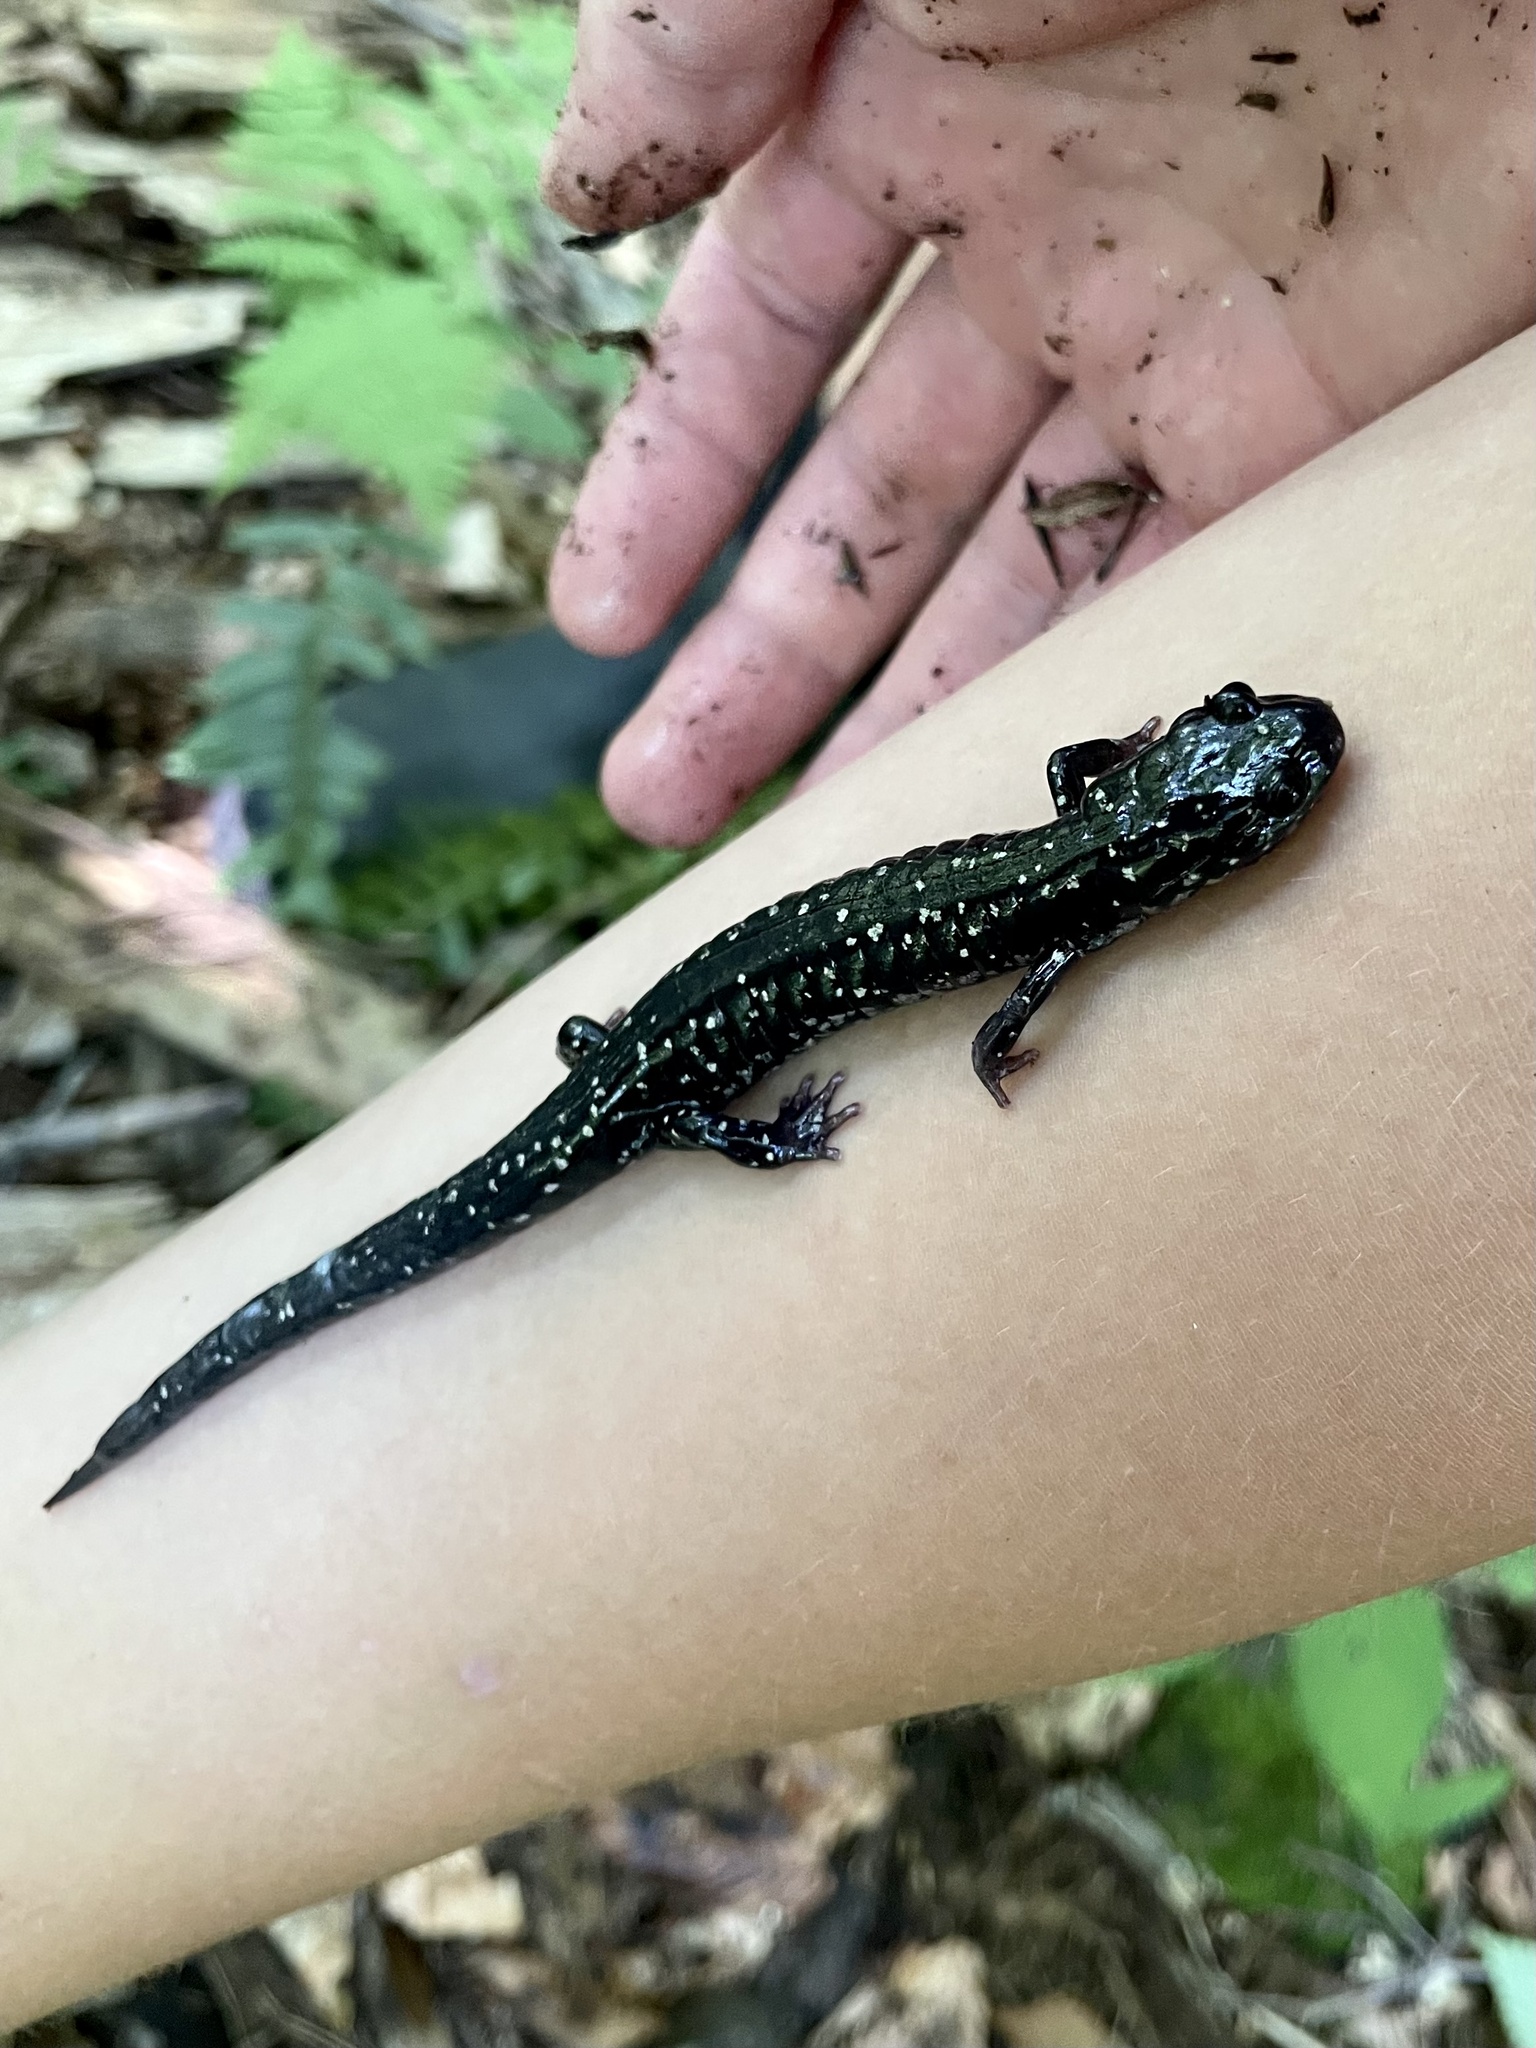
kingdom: Animalia
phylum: Chordata
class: Amphibia
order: Caudata
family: Plethodontidae
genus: Plethodon
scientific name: Plethodon glutinosus
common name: Northern slimy salamander
